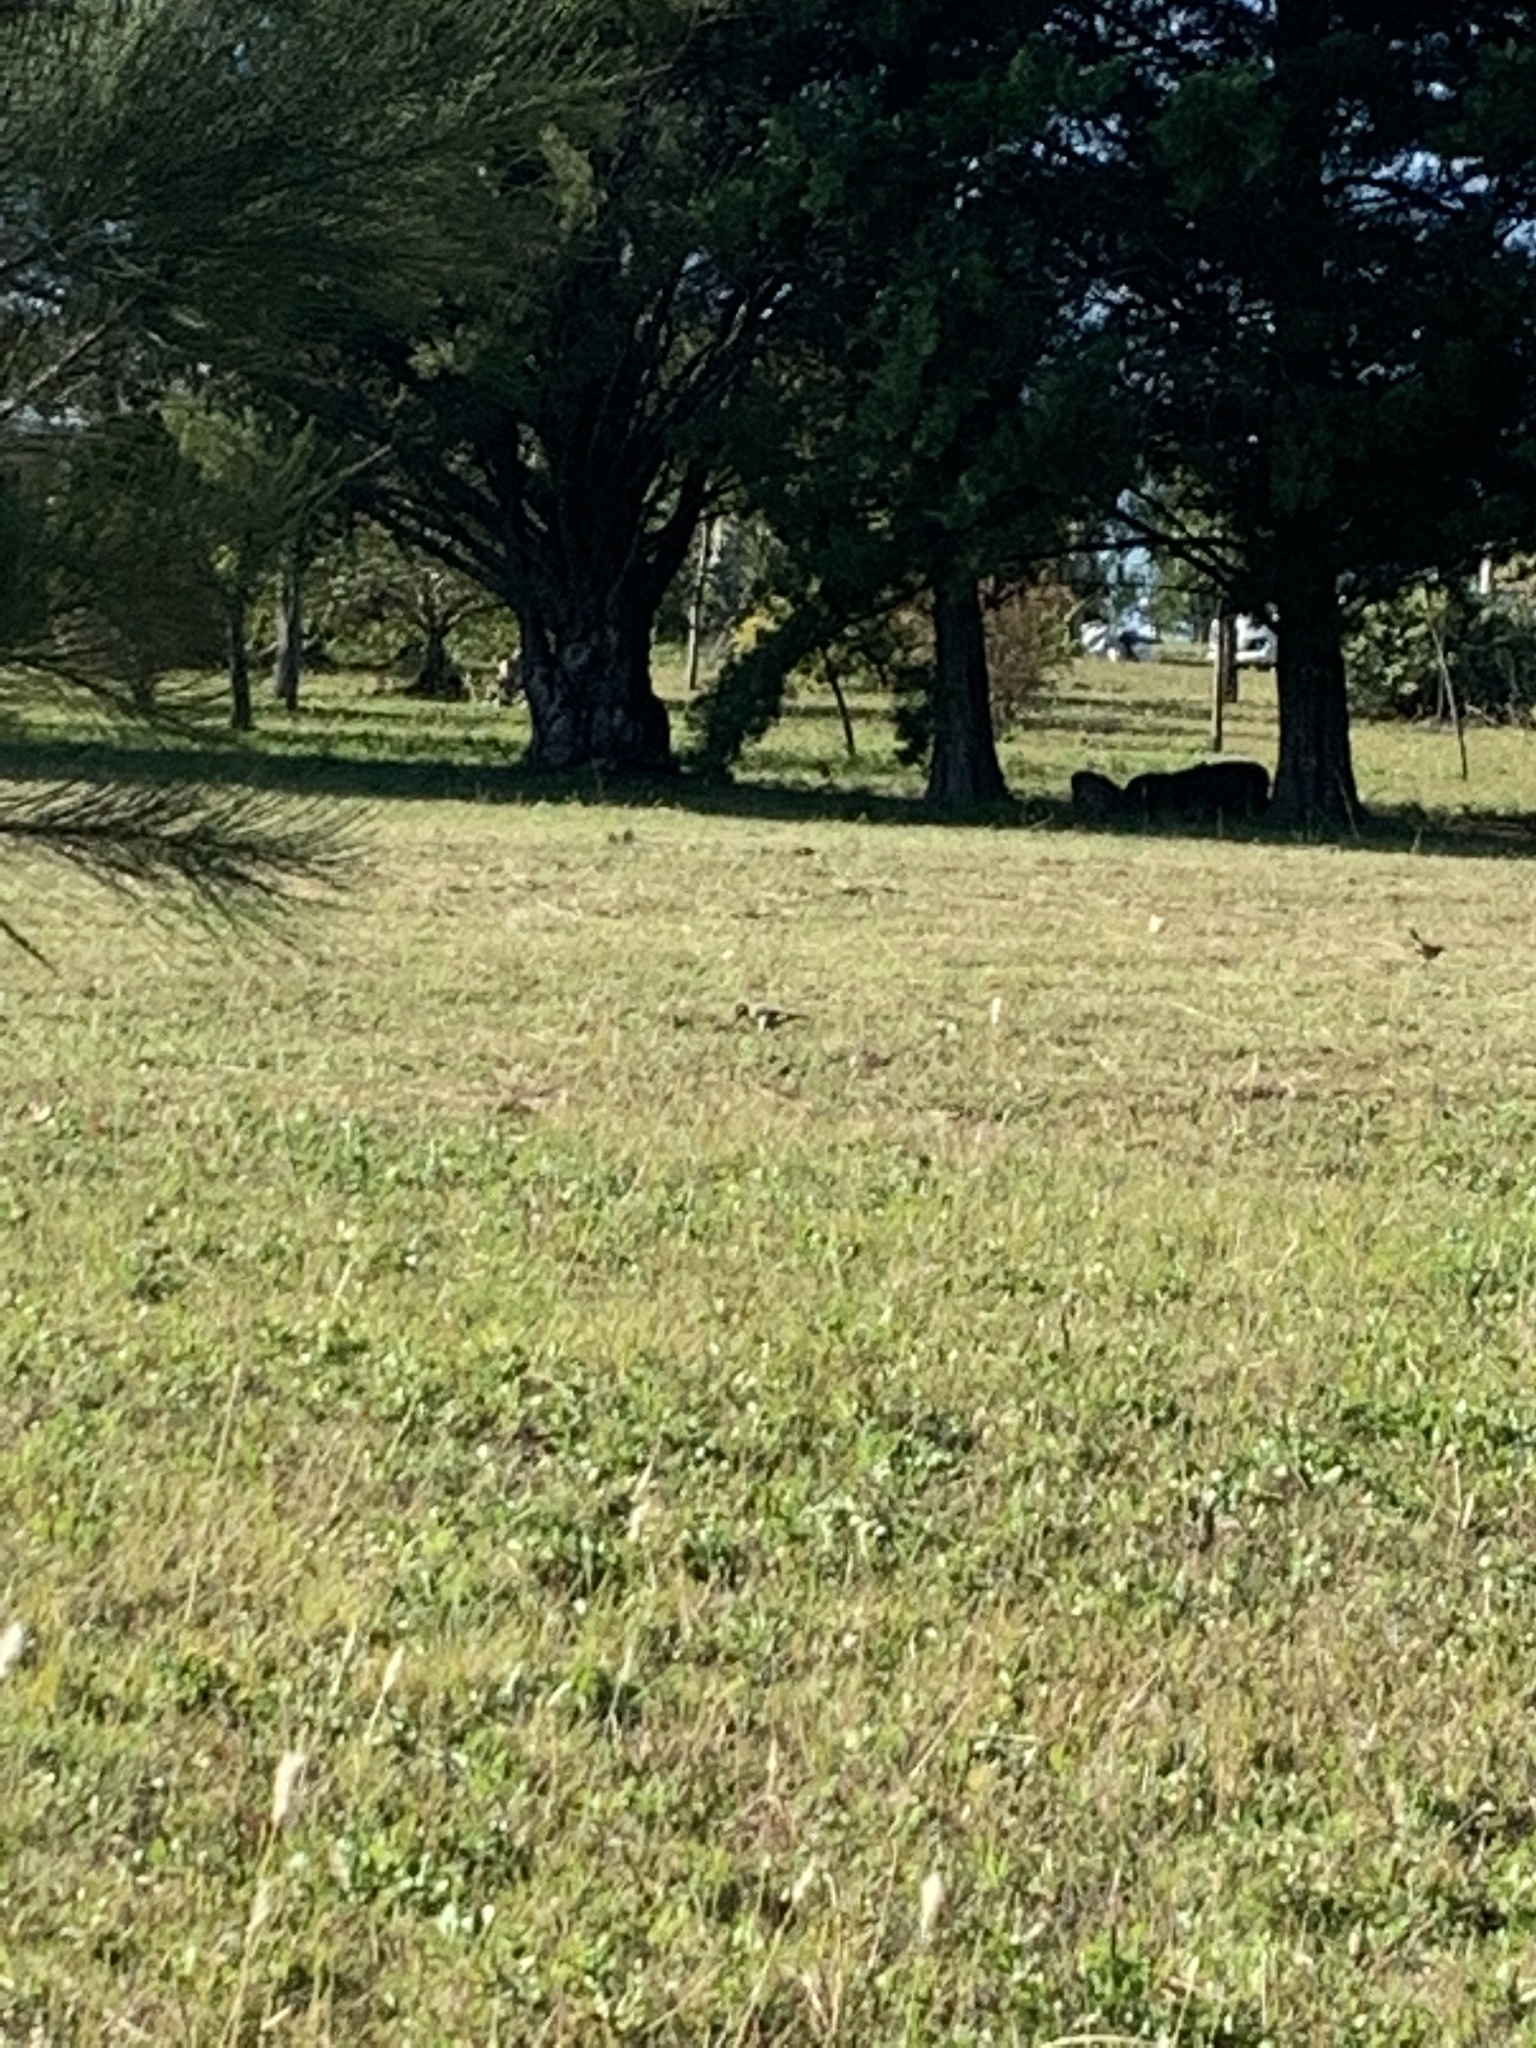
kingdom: Animalia
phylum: Chordata
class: Aves
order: Piciformes
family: Picidae
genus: Colaptes
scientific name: Colaptes melanochloros
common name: Green-barred woodpecker
